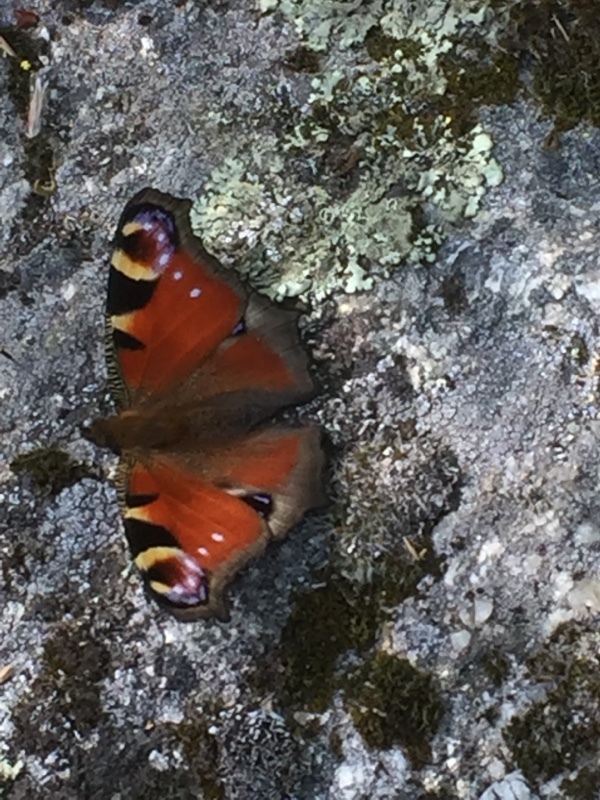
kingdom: Animalia
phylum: Arthropoda
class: Insecta
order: Lepidoptera
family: Nymphalidae
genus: Aglais
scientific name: Aglais io
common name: Peacock
